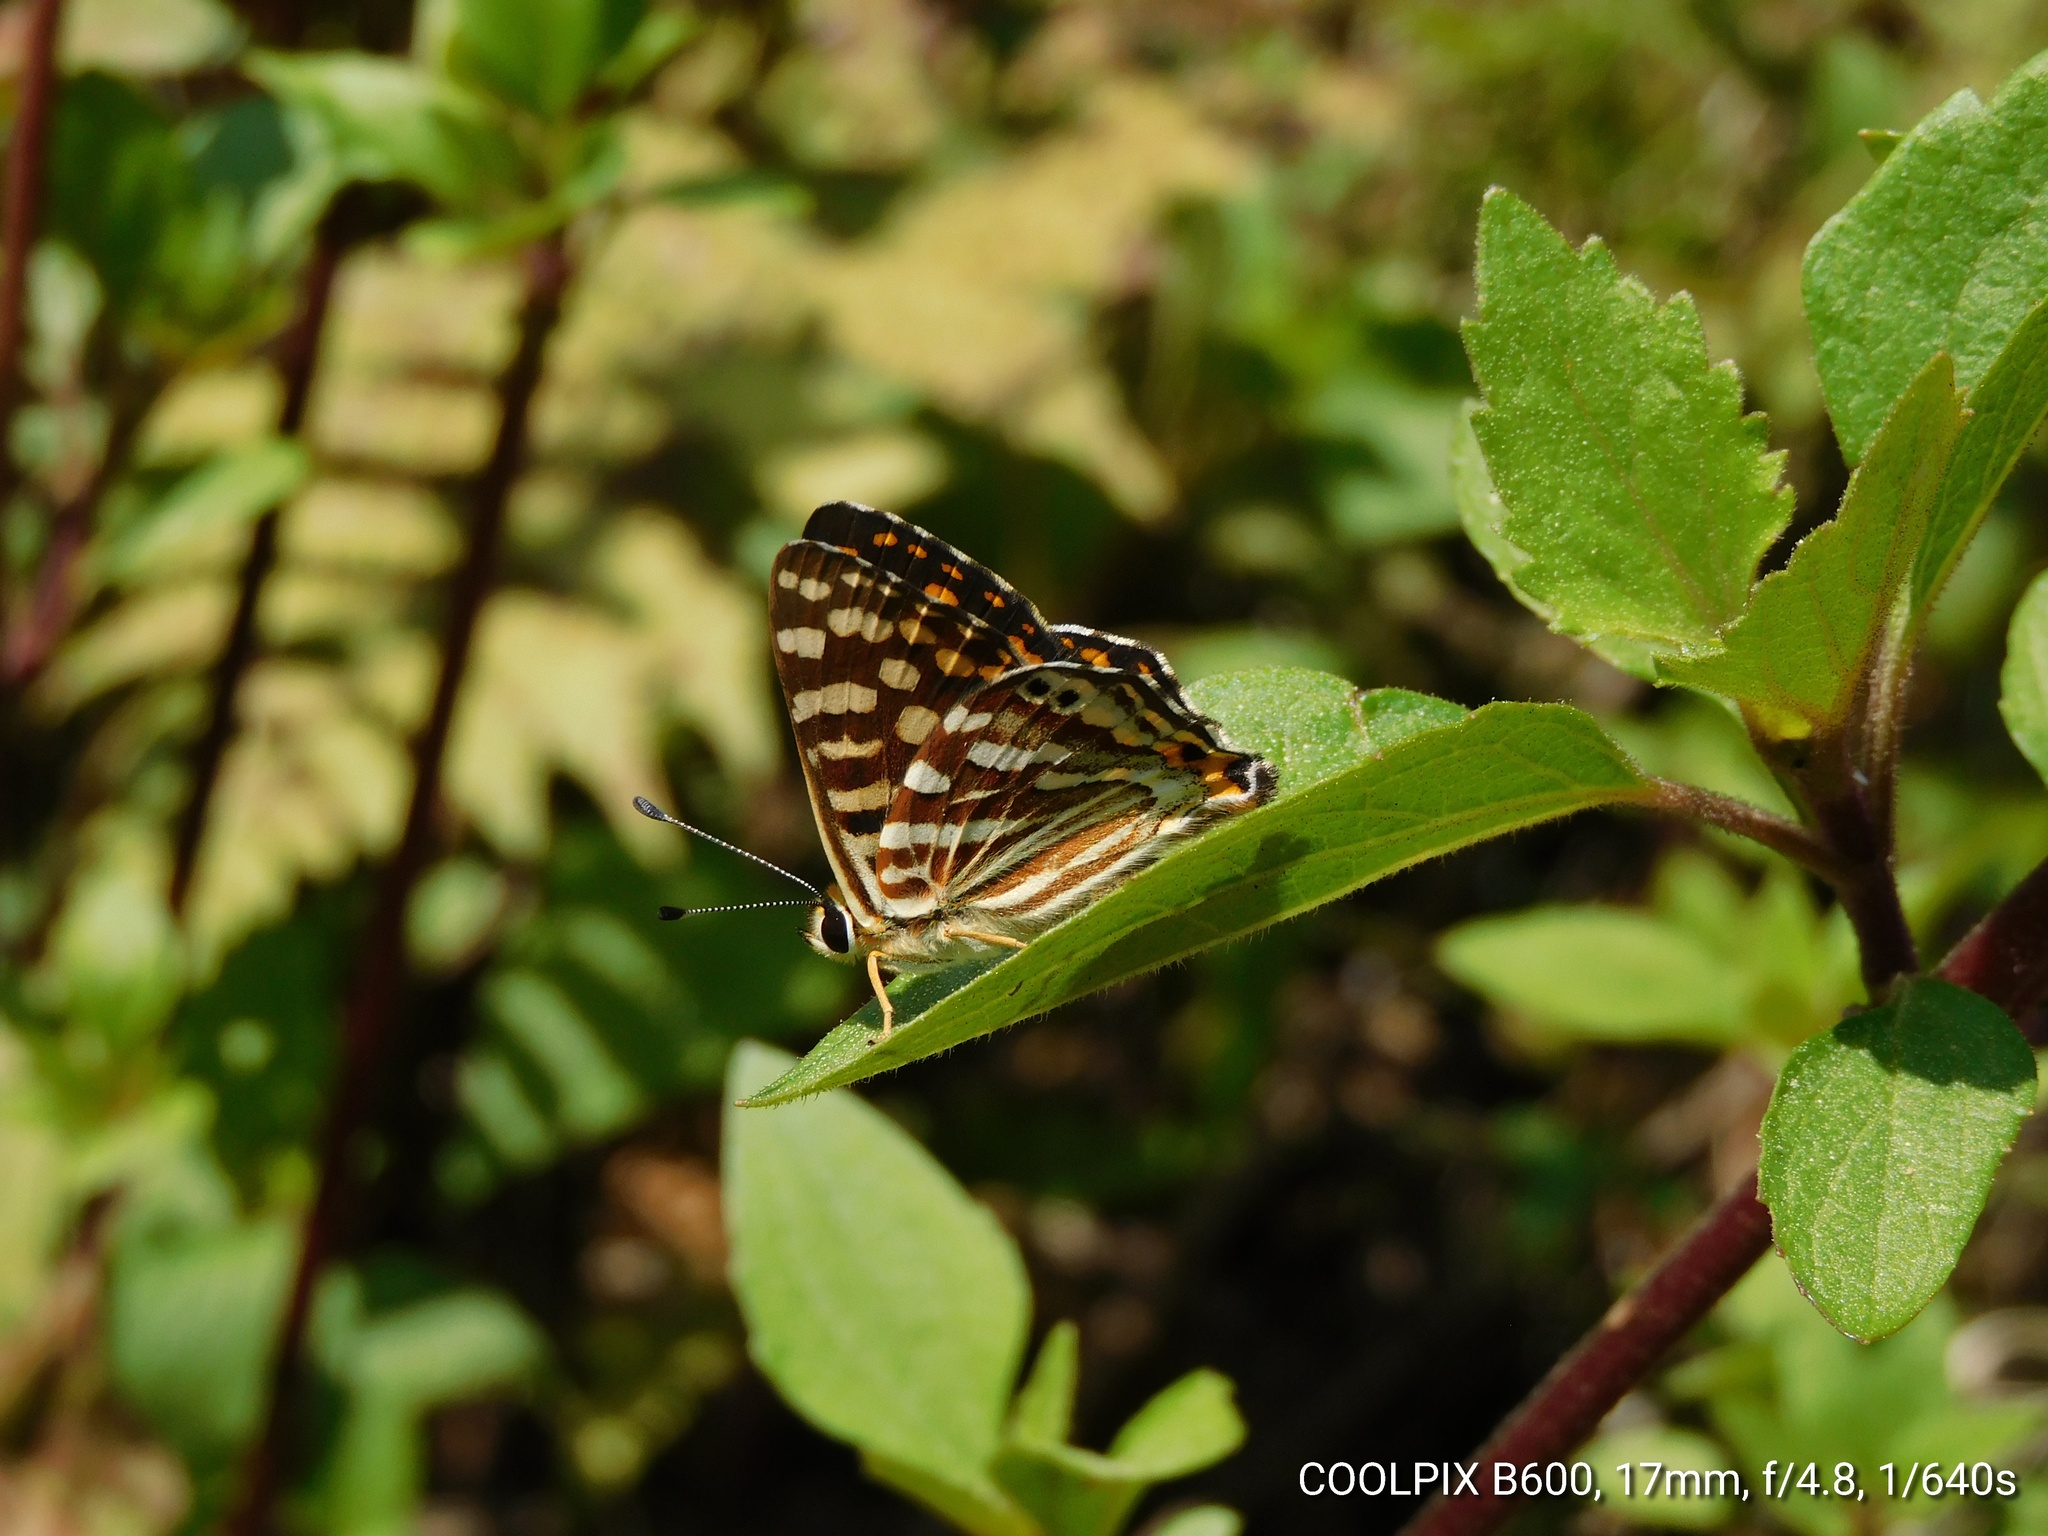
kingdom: Animalia
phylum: Arthropoda
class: Insecta
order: Lepidoptera
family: Lycaenidae
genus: Dodona
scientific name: Dodona durga
